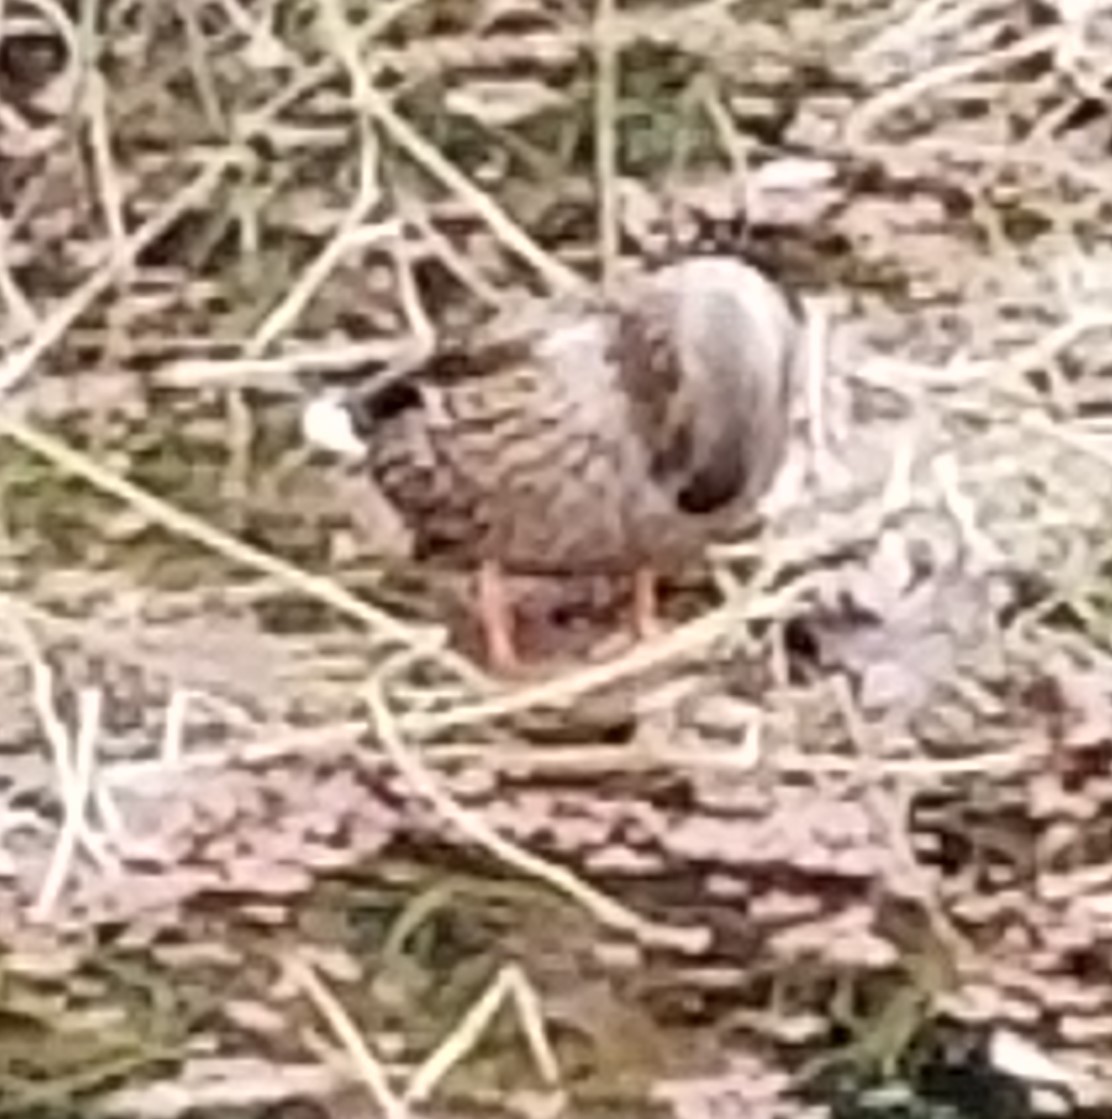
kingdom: Animalia
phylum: Chordata
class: Aves
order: Anseriformes
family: Anatidae
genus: Anas
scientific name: Anas platyrhynchos
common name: Mallard
